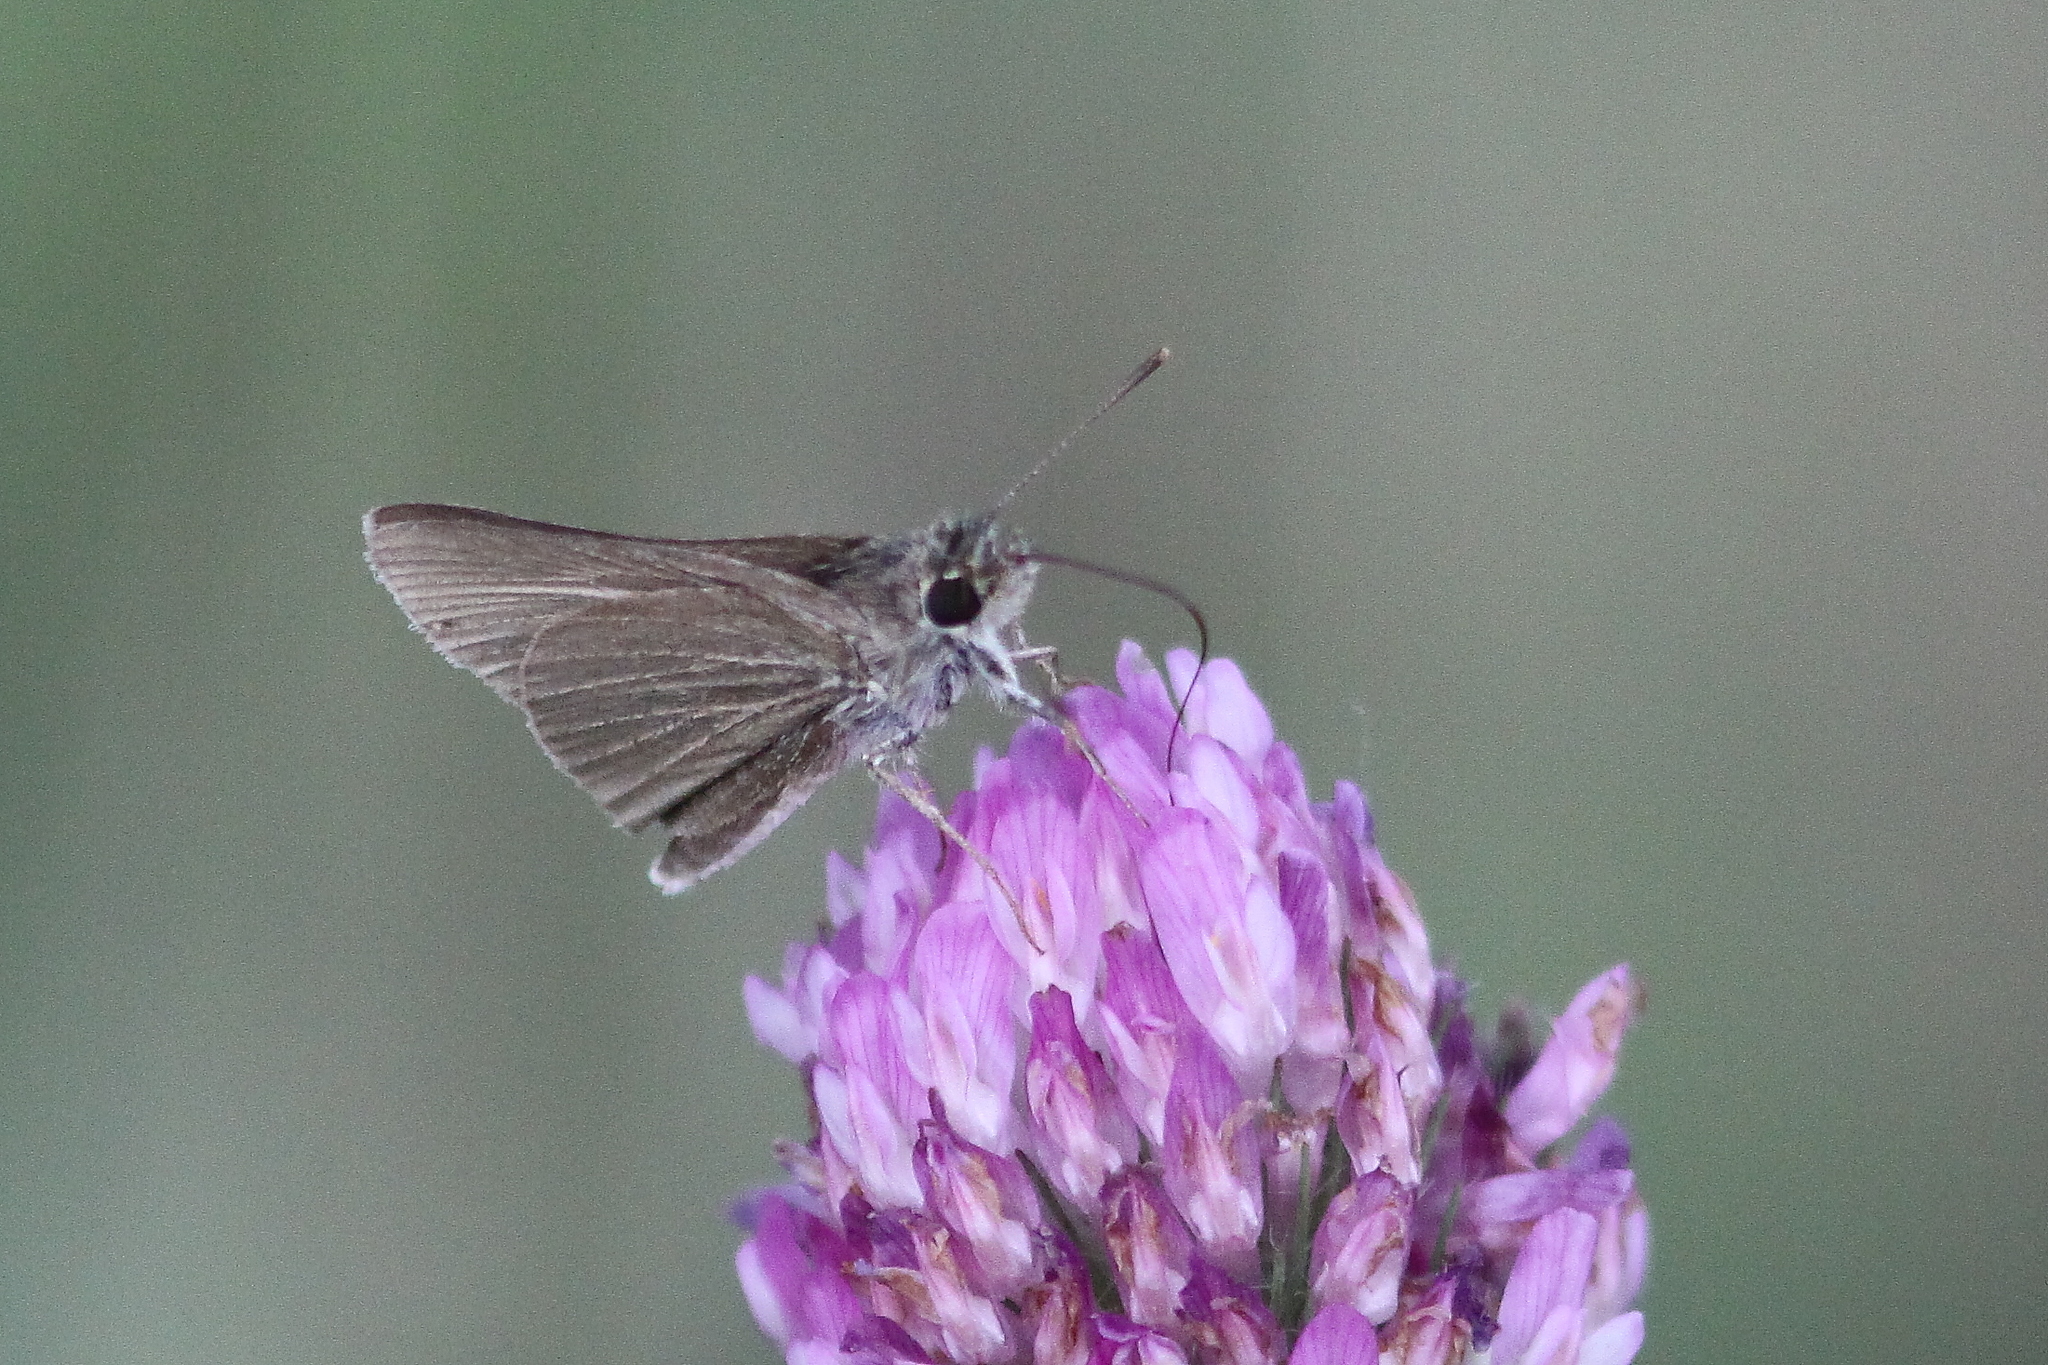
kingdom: Animalia
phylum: Arthropoda
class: Insecta
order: Lepidoptera
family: Hesperiidae
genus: Nastra
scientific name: Nastra lherminier
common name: Swarthy skipper
